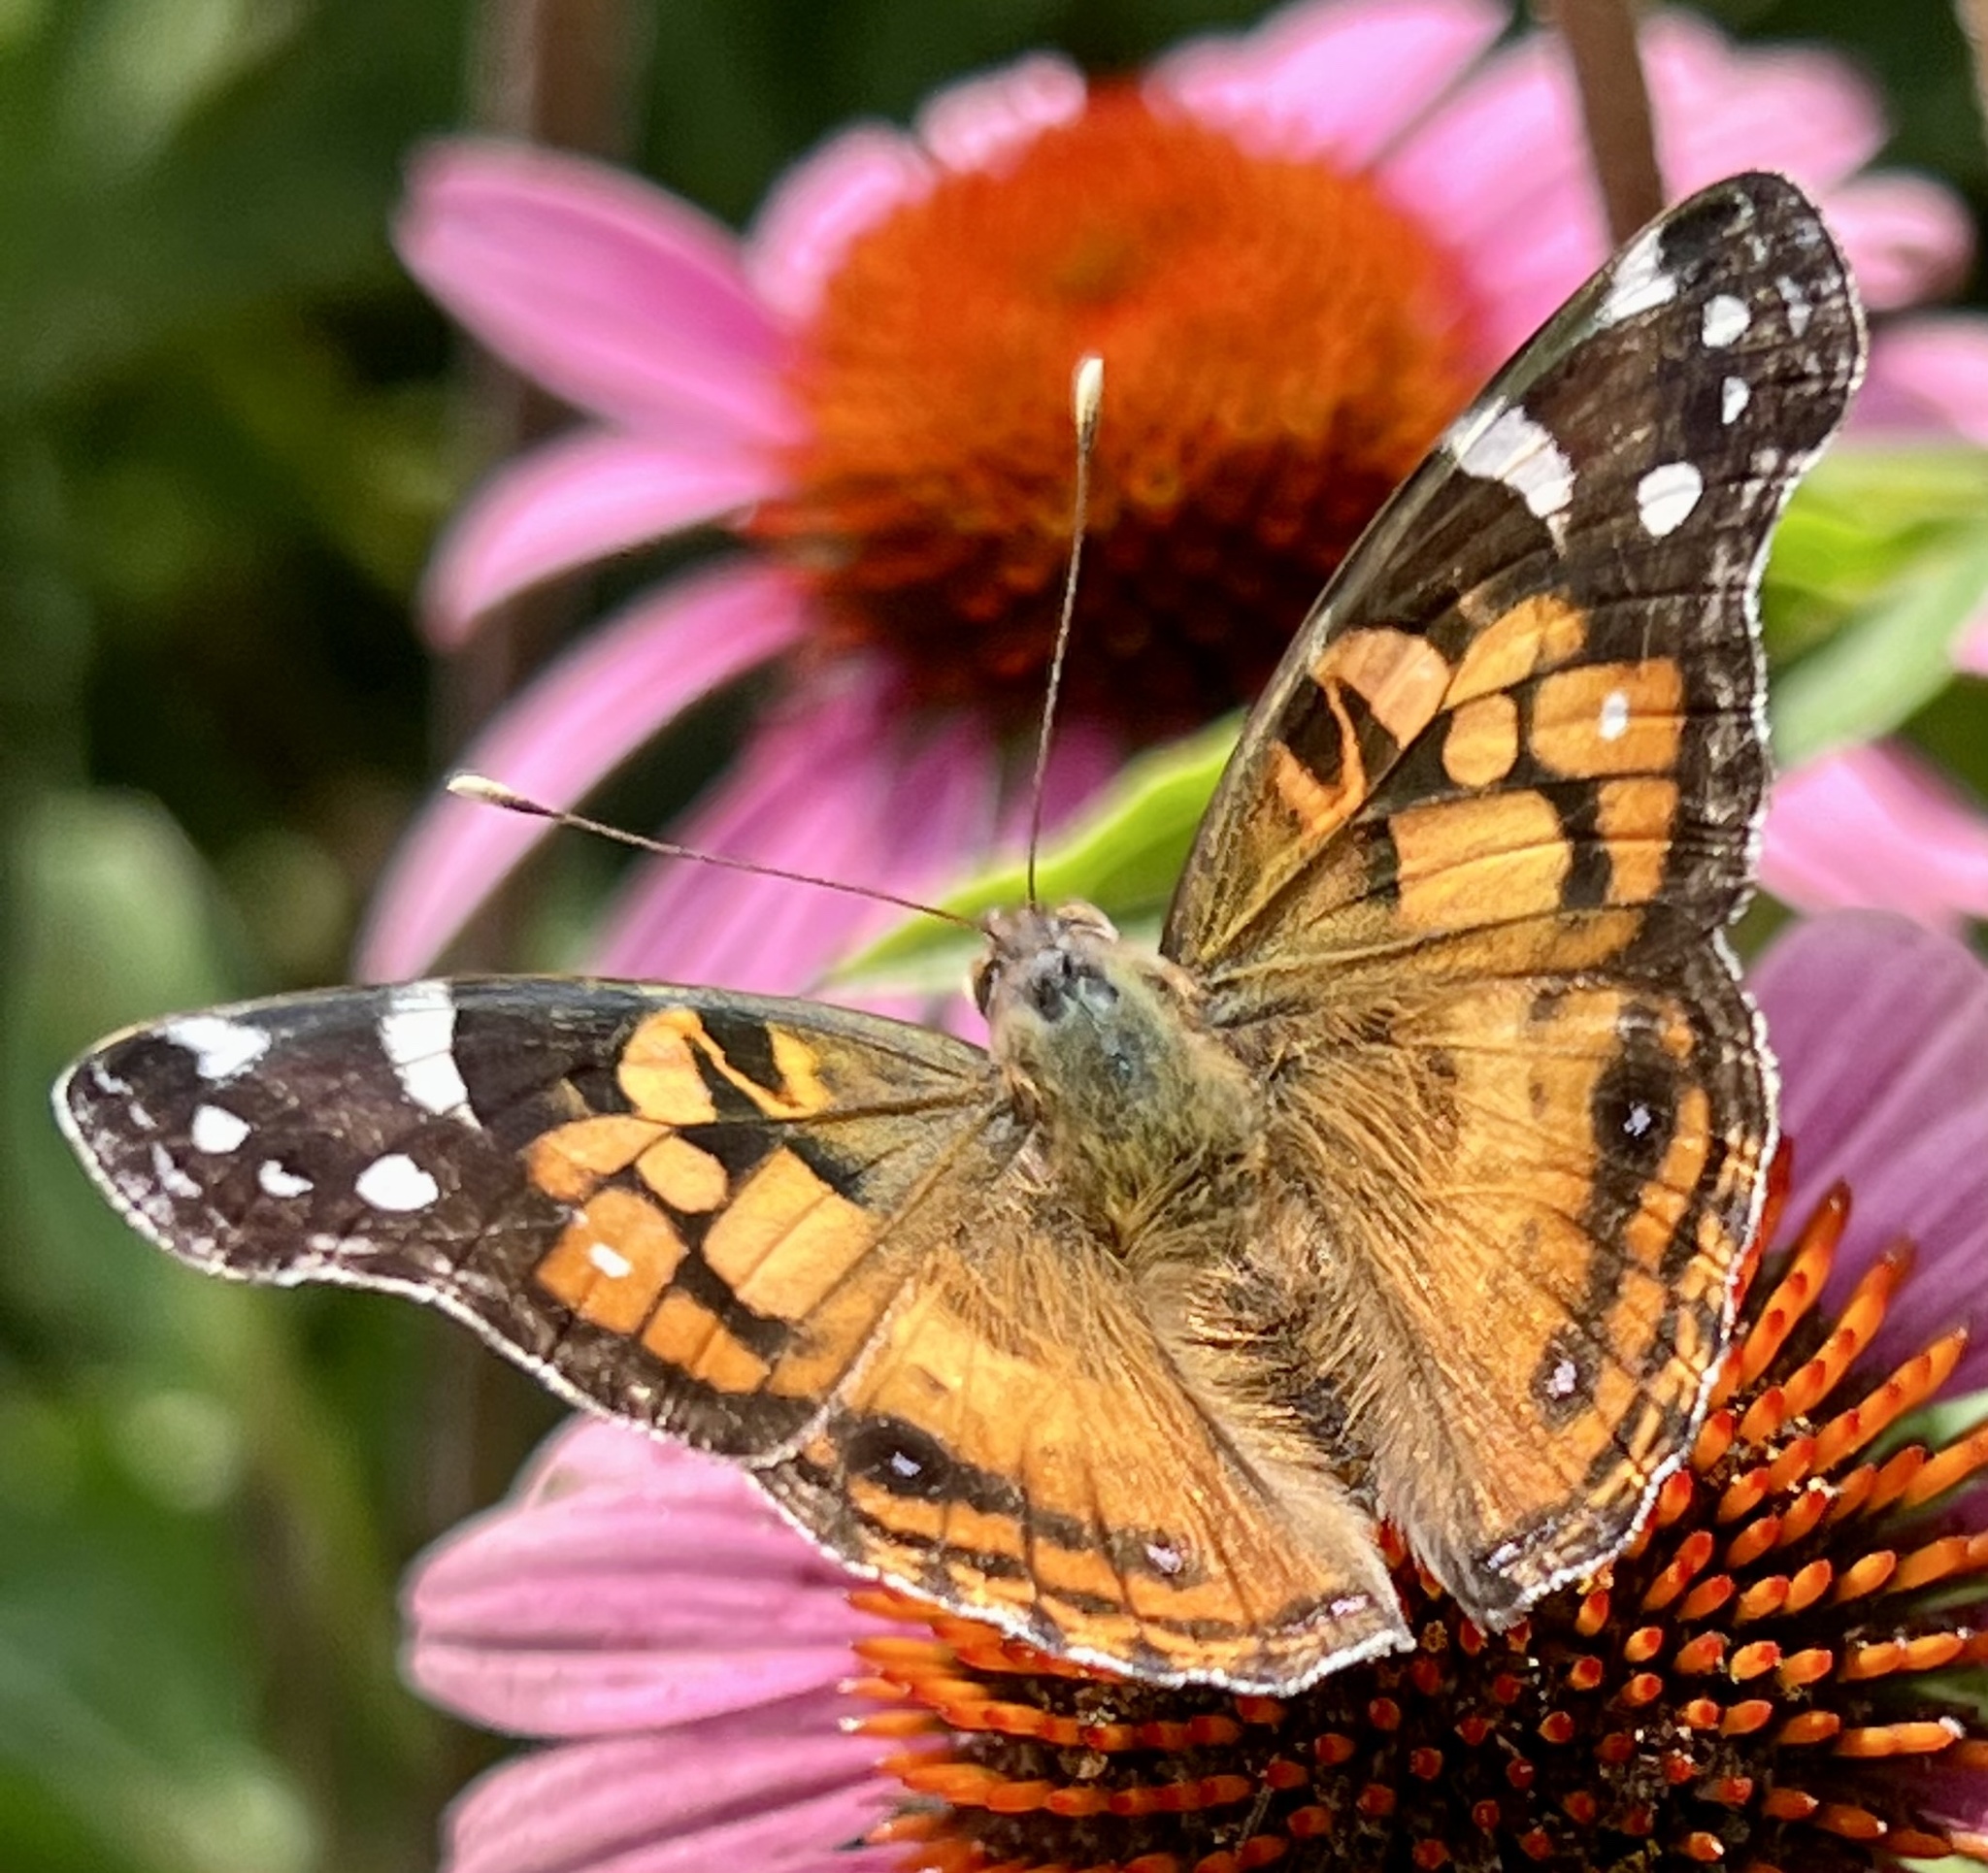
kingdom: Animalia
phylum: Arthropoda
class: Insecta
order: Lepidoptera
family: Nymphalidae
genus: Vanessa
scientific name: Vanessa virginiensis
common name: American lady
